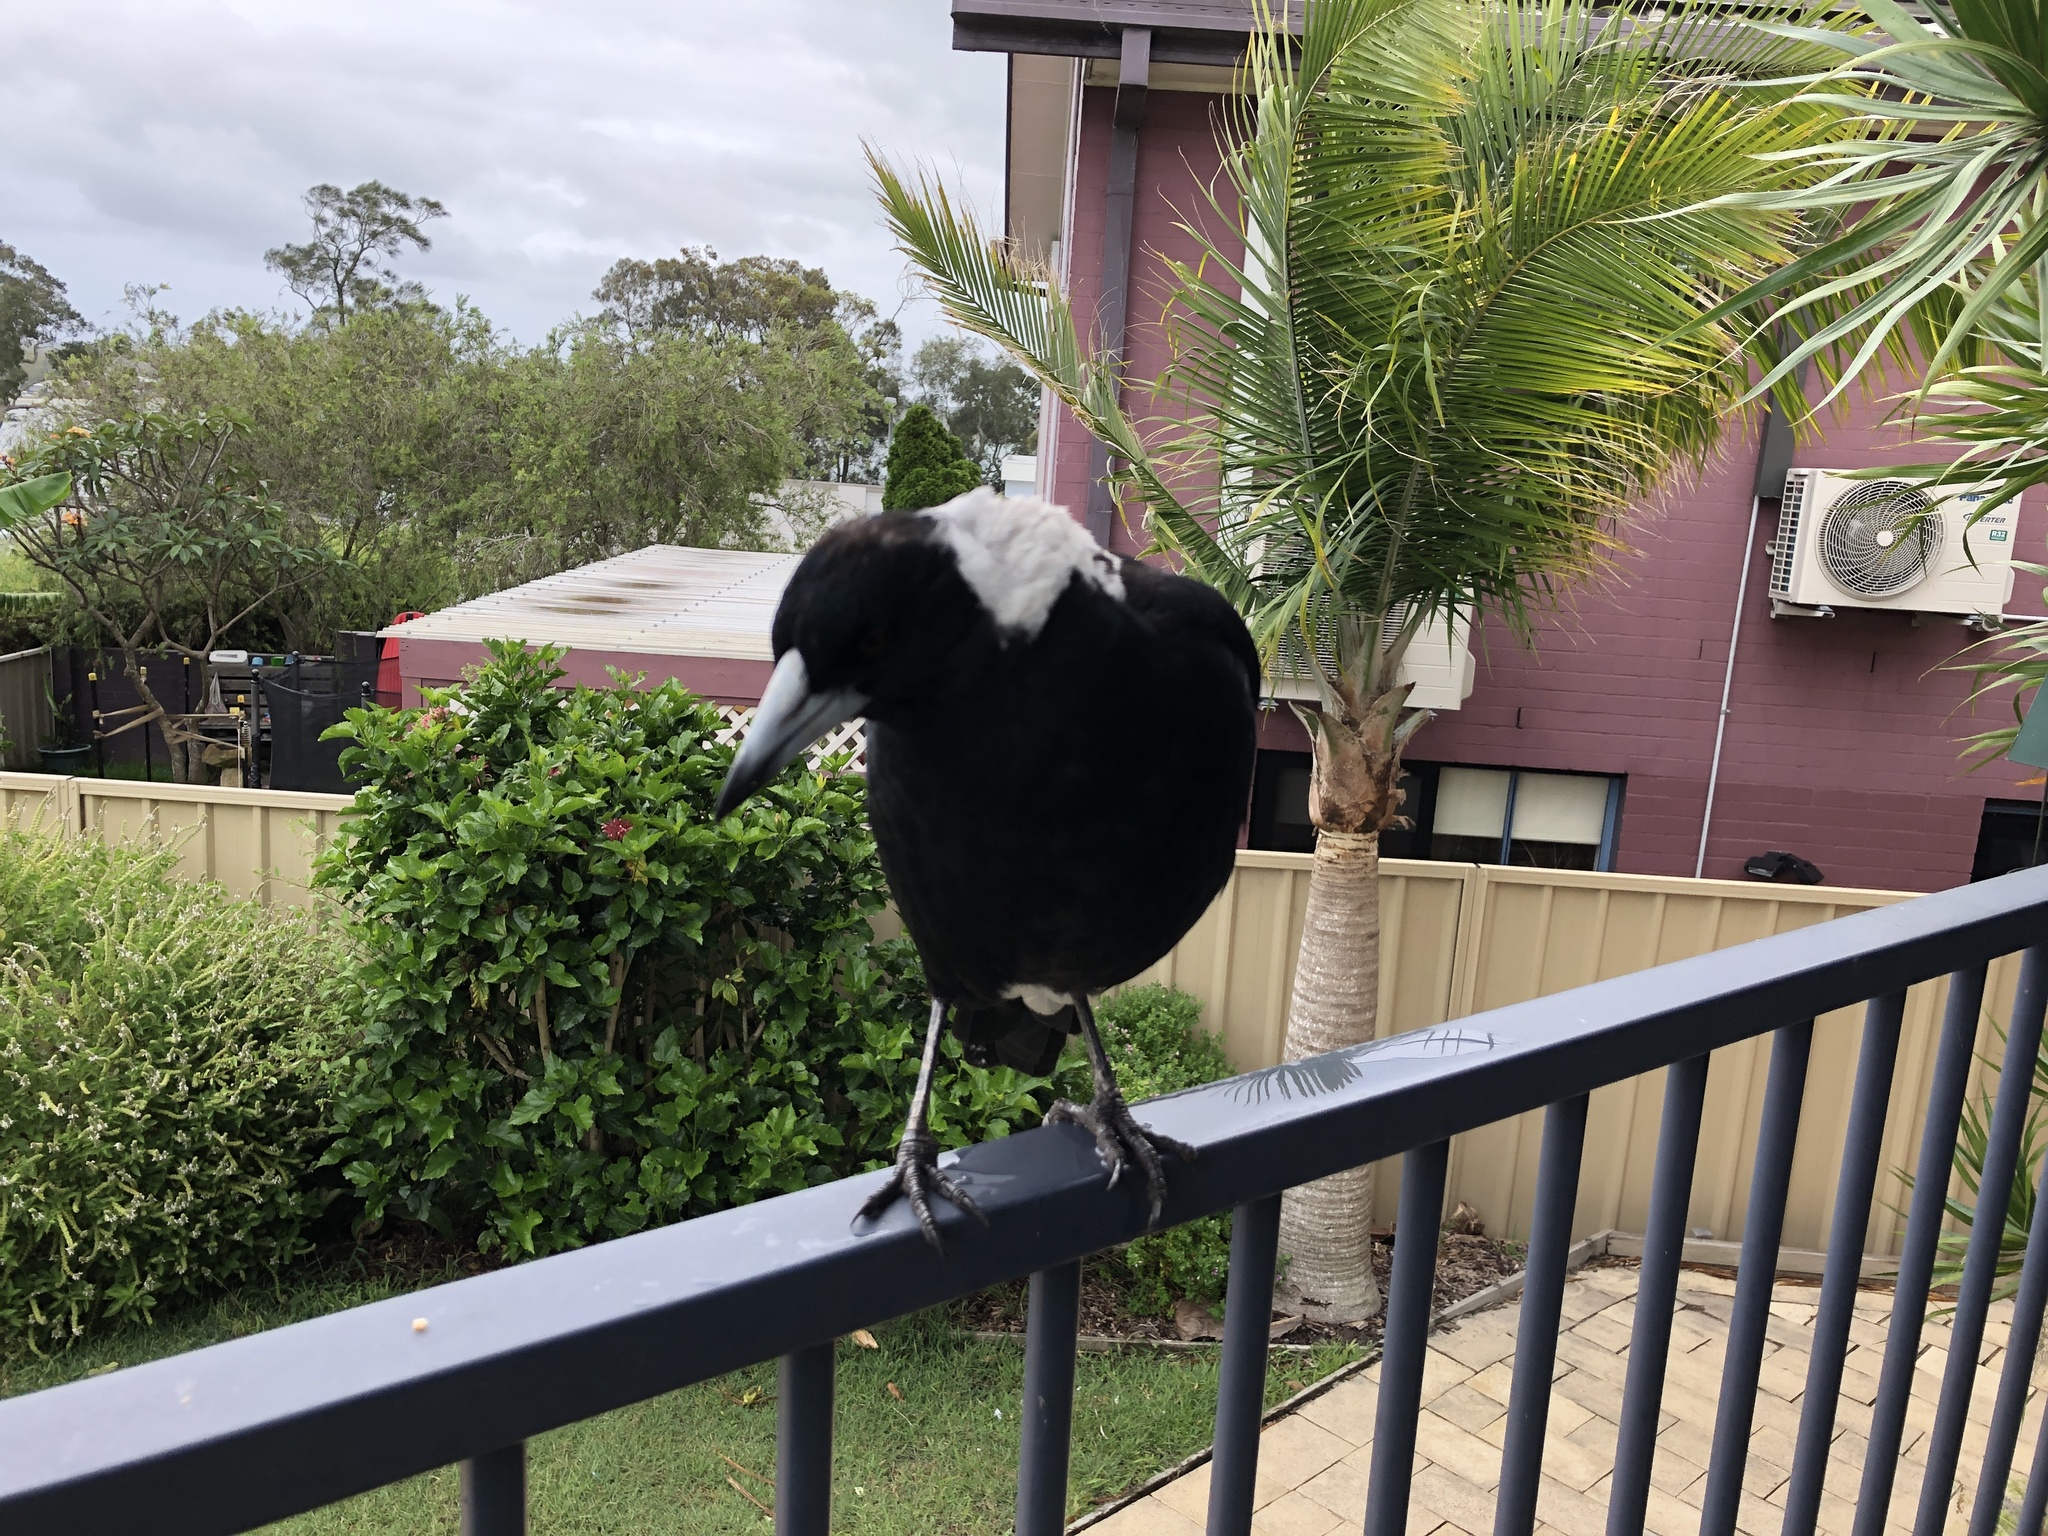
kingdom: Animalia
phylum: Chordata
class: Aves
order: Passeriformes
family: Cracticidae
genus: Gymnorhina
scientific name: Gymnorhina tibicen
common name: Australian magpie
